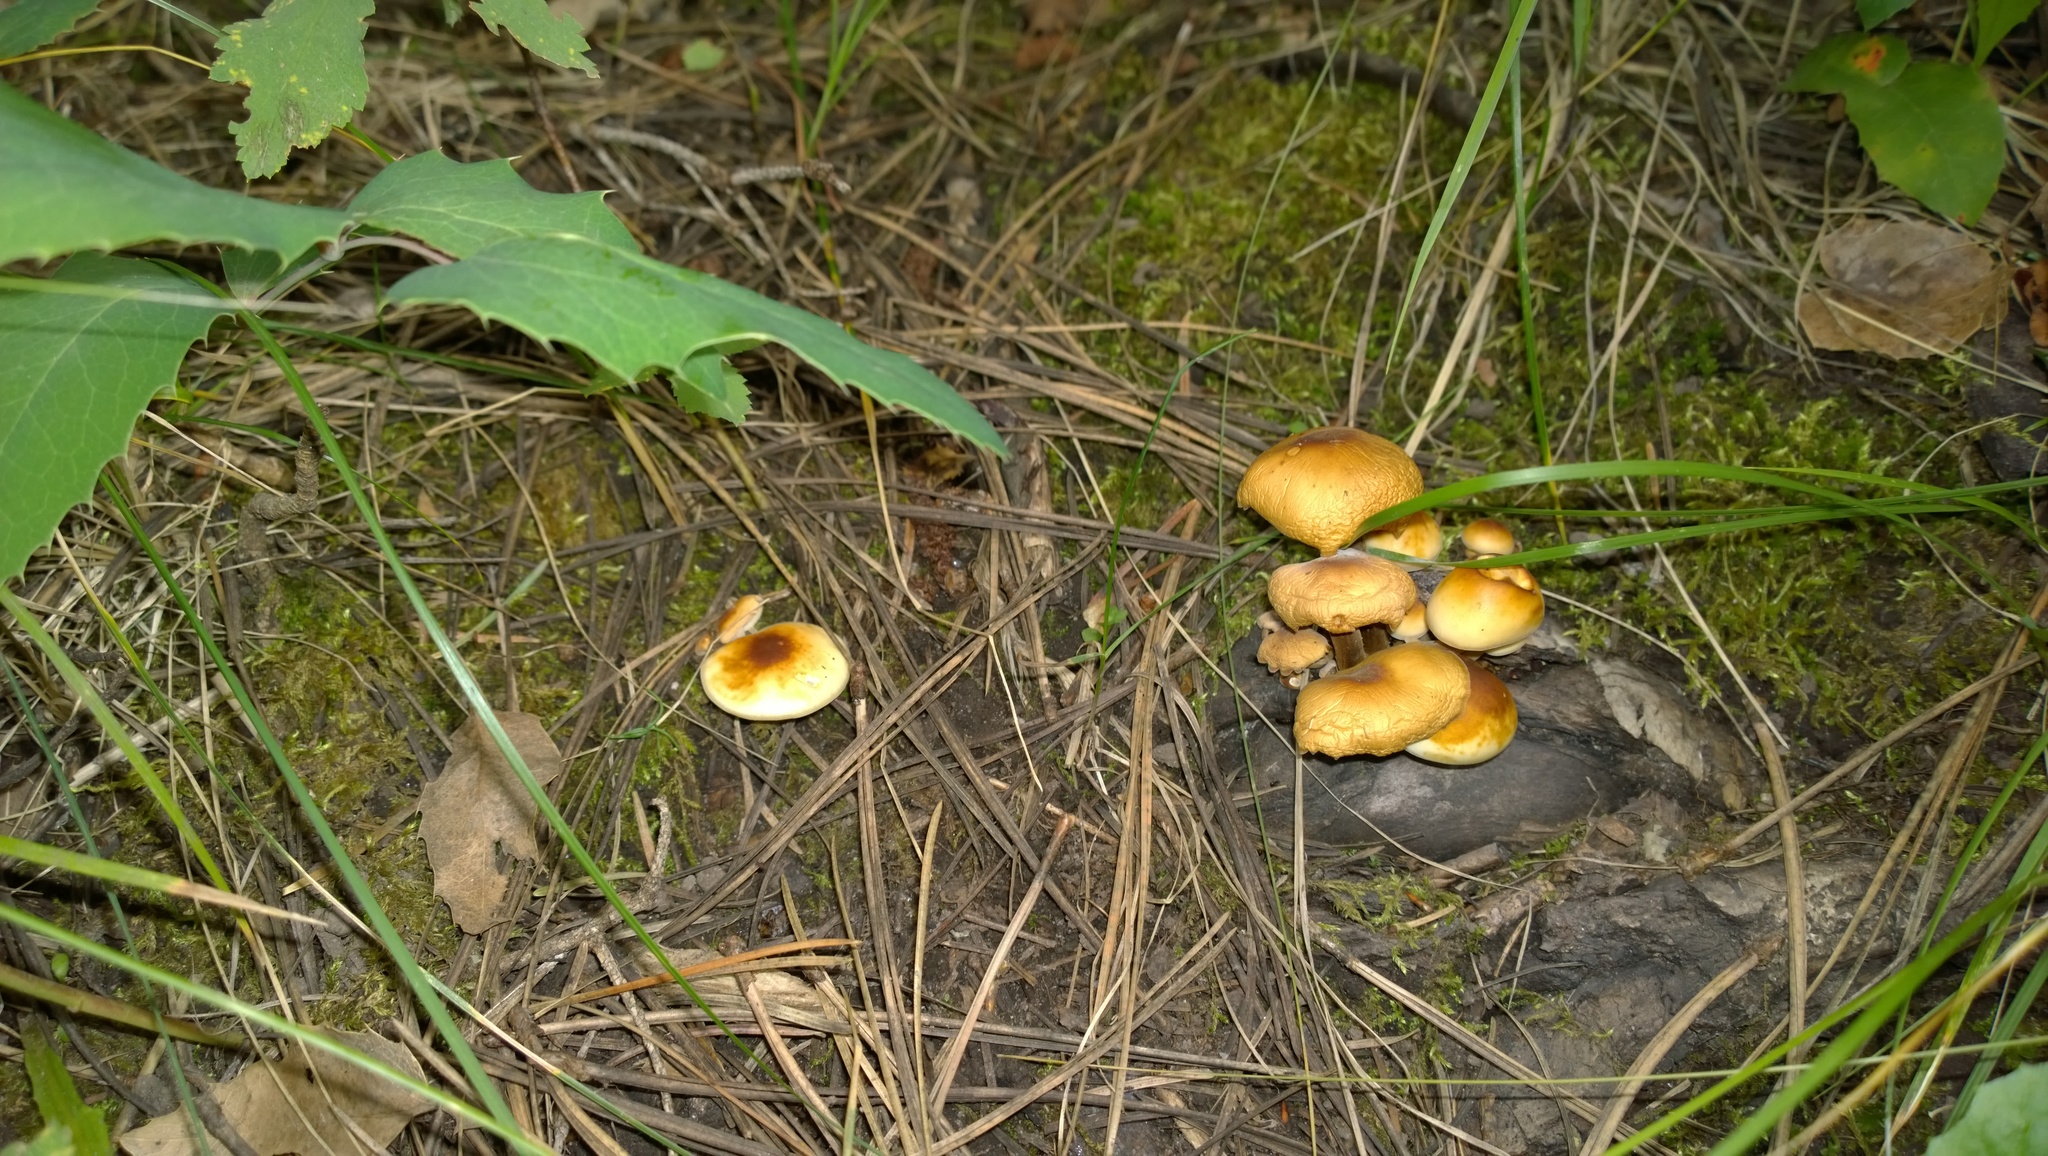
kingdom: Fungi
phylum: Basidiomycota
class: Agaricomycetes
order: Agaricales
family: Physalacriaceae
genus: Flammulina
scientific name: Flammulina populicola
